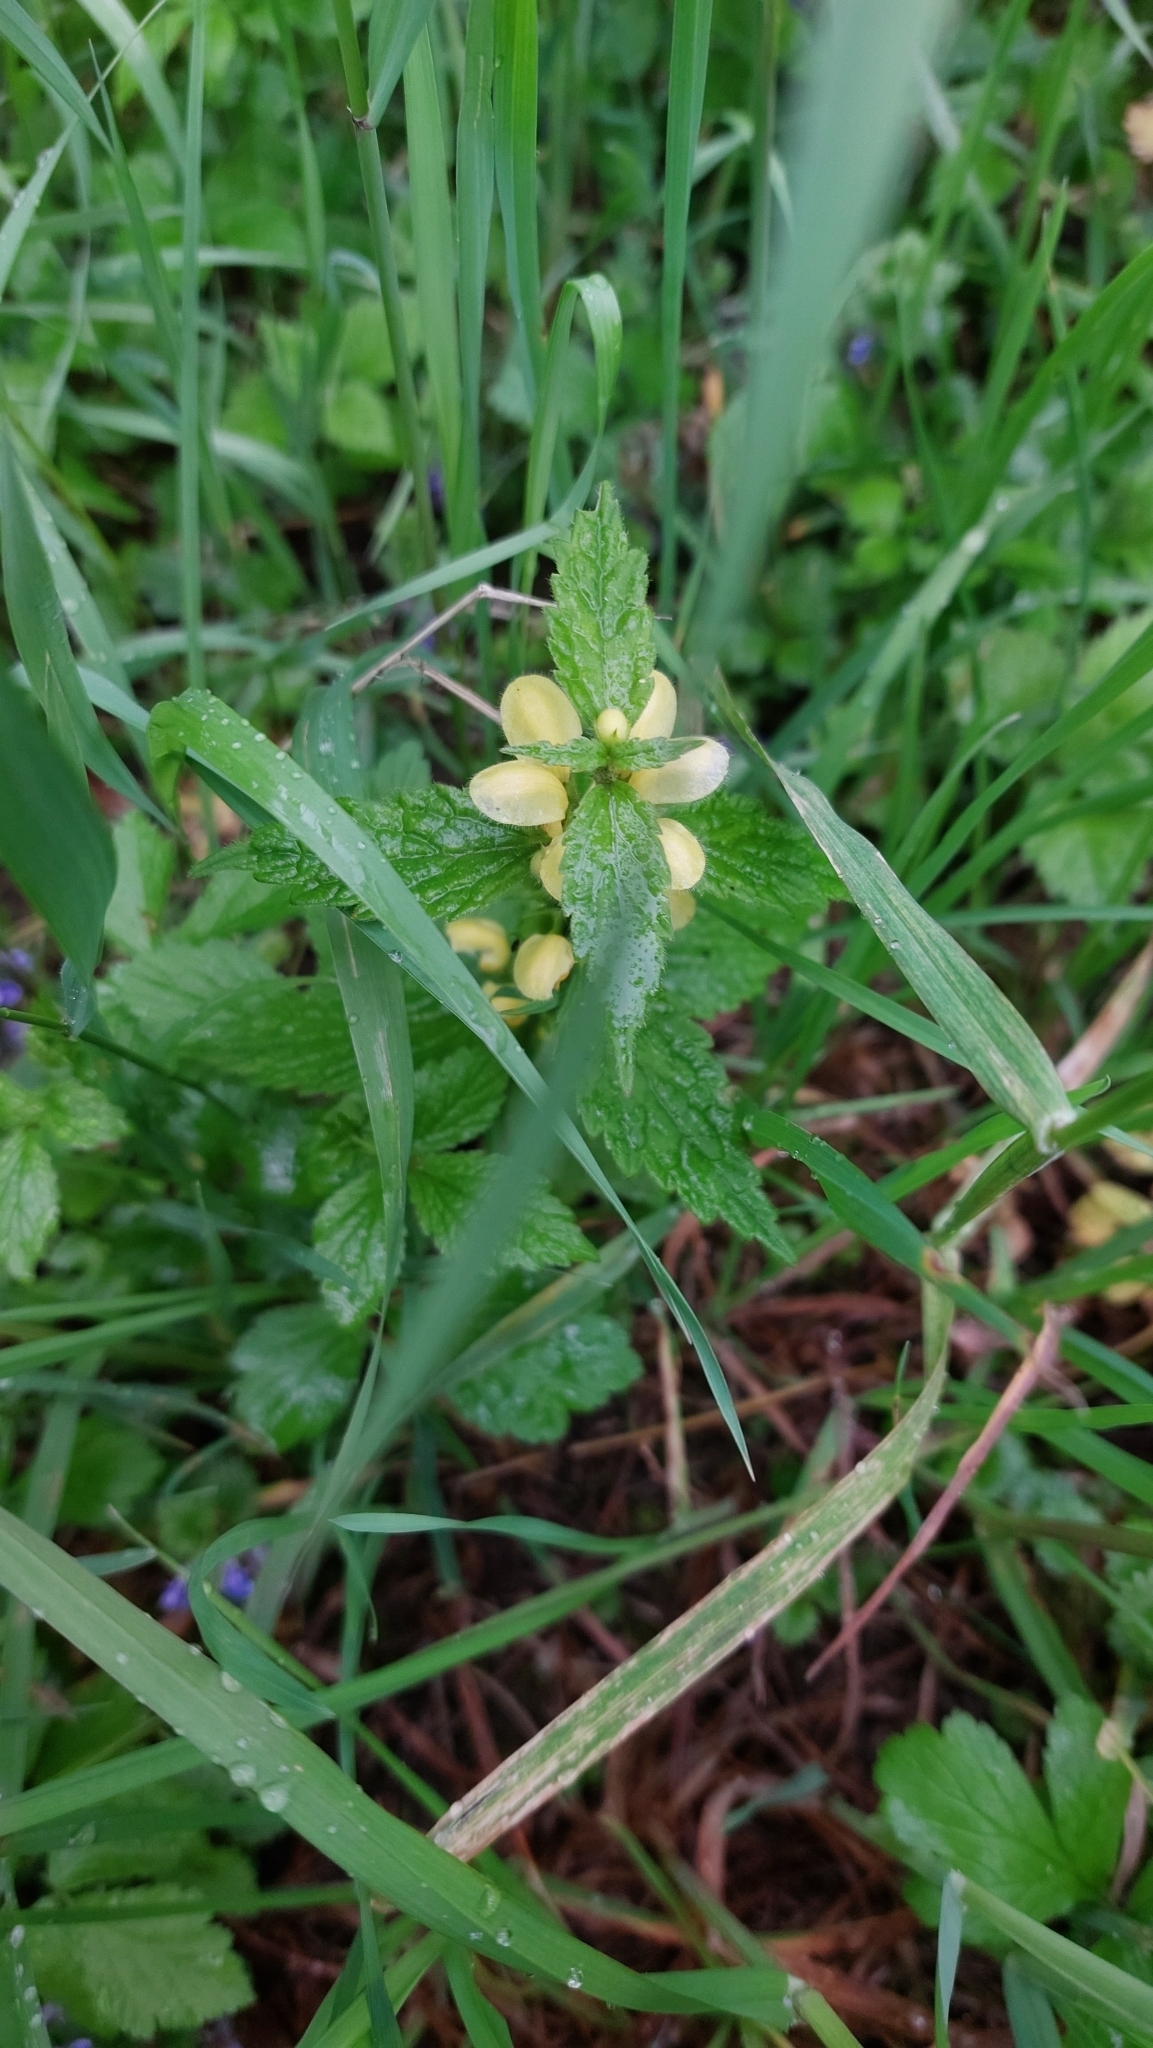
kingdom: Plantae
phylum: Tracheophyta
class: Magnoliopsida
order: Lamiales
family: Lamiaceae
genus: Lamium
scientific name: Lamium galeobdolon
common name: Yellow archangel
